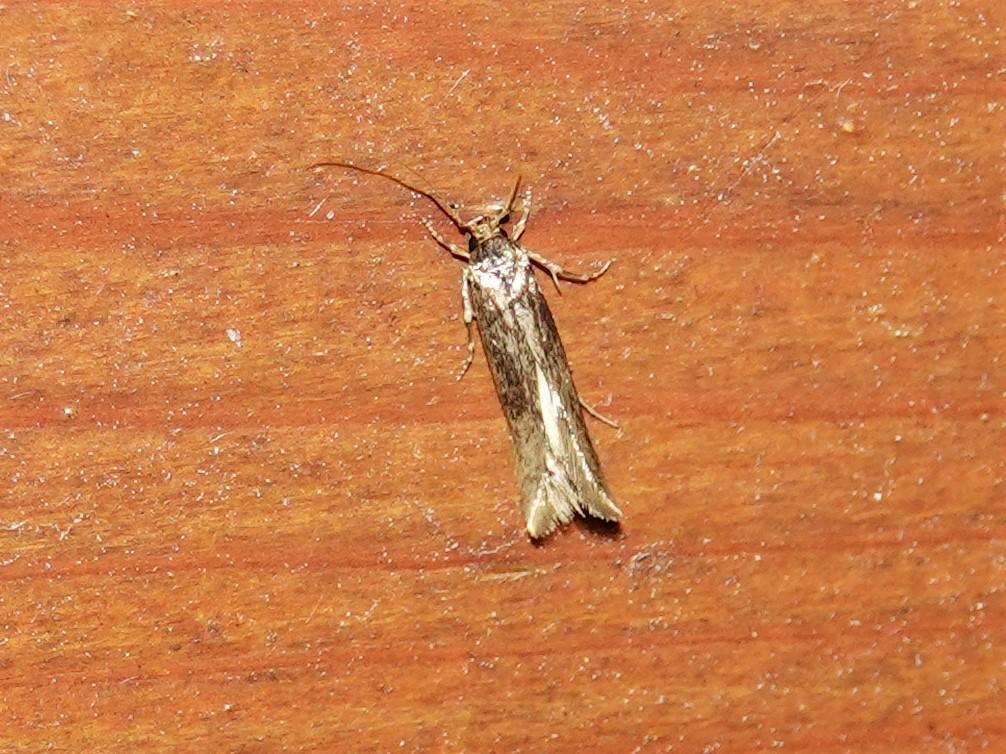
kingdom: Animalia
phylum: Arthropoda
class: Insecta
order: Lepidoptera
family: Tineidae
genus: Opogona
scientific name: Opogona omoscopa
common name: Moth
